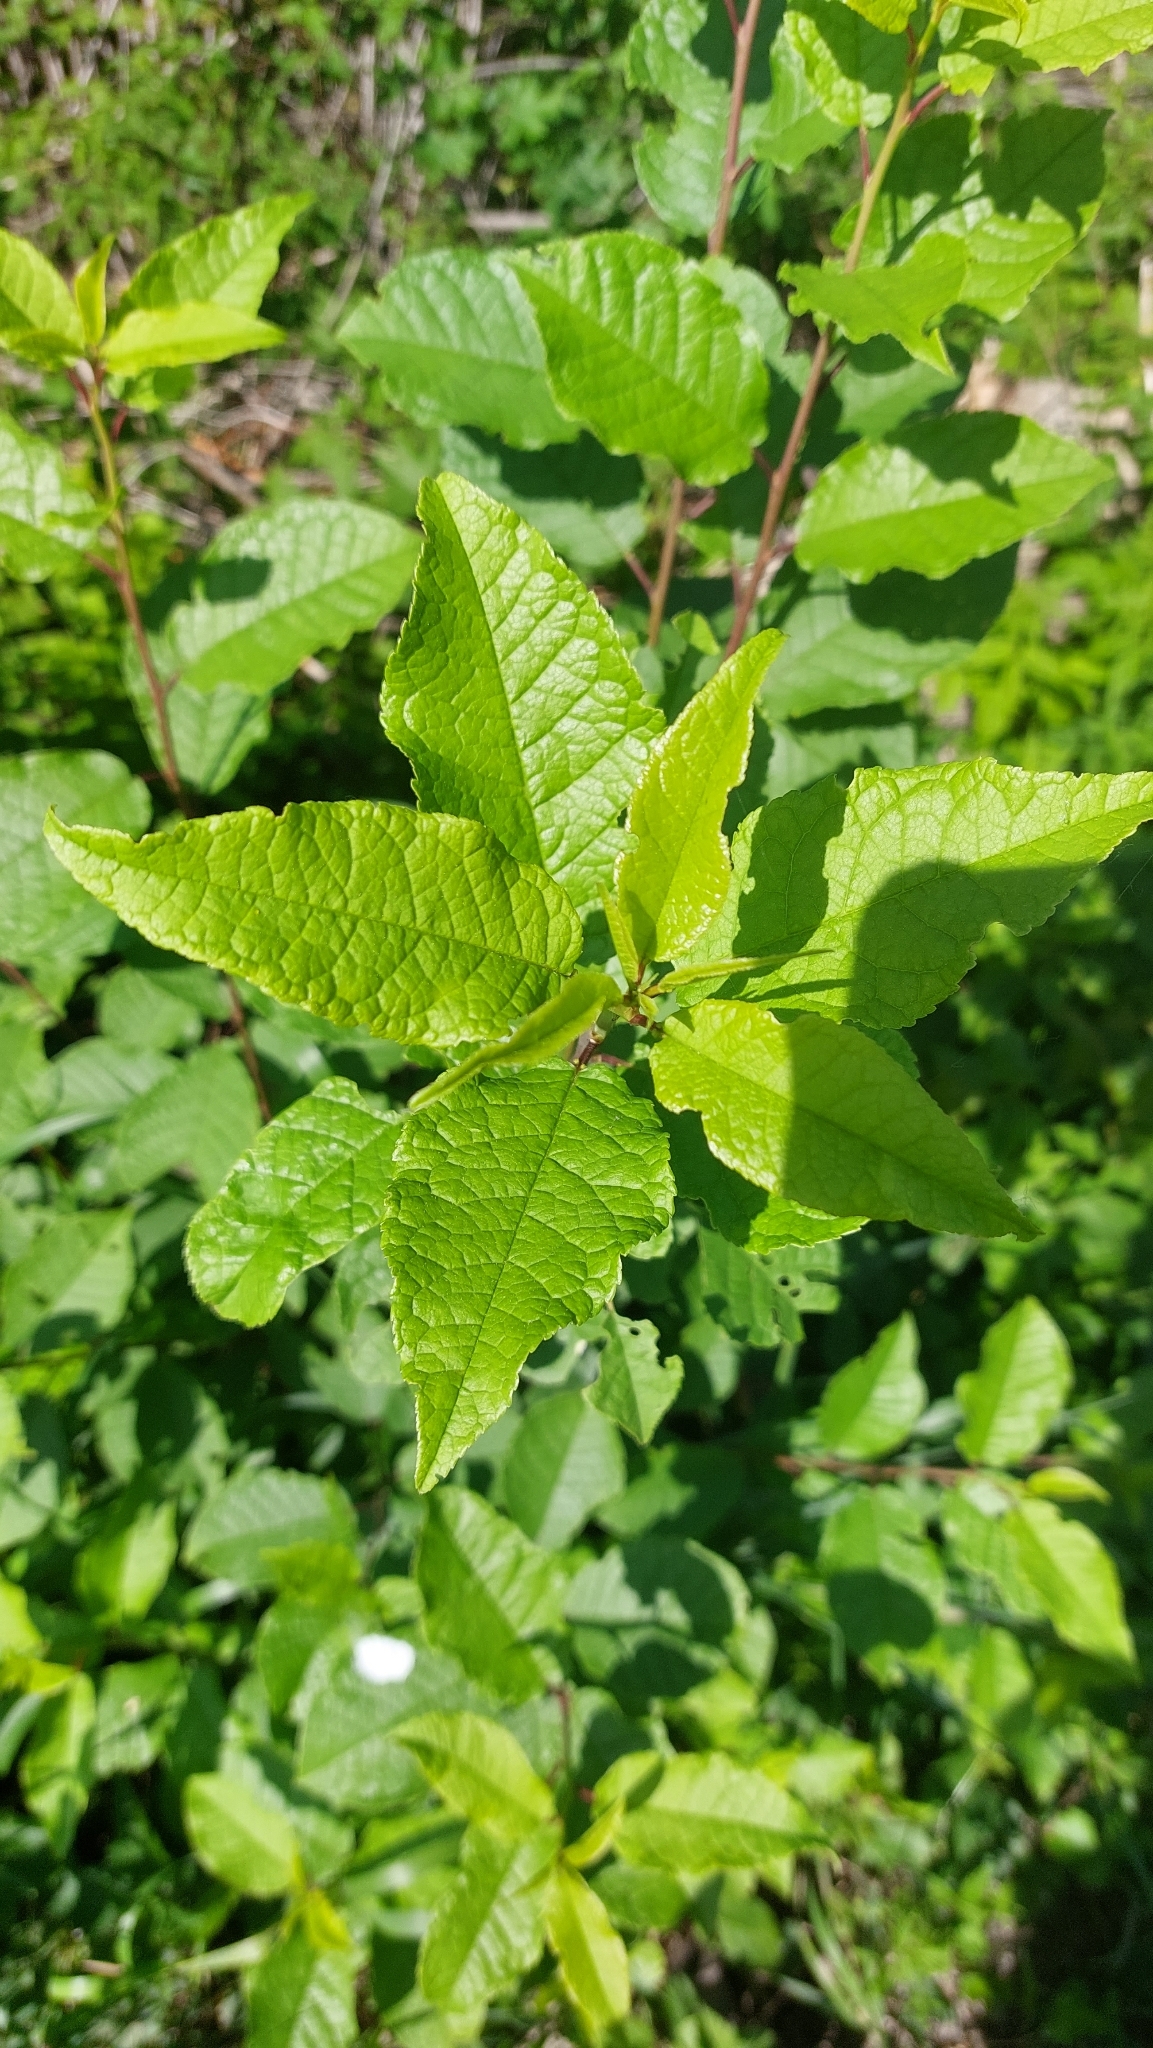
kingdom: Plantae
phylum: Tracheophyta
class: Magnoliopsida
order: Rosales
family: Rosaceae
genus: Prunus
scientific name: Prunus padus
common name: Bird cherry
